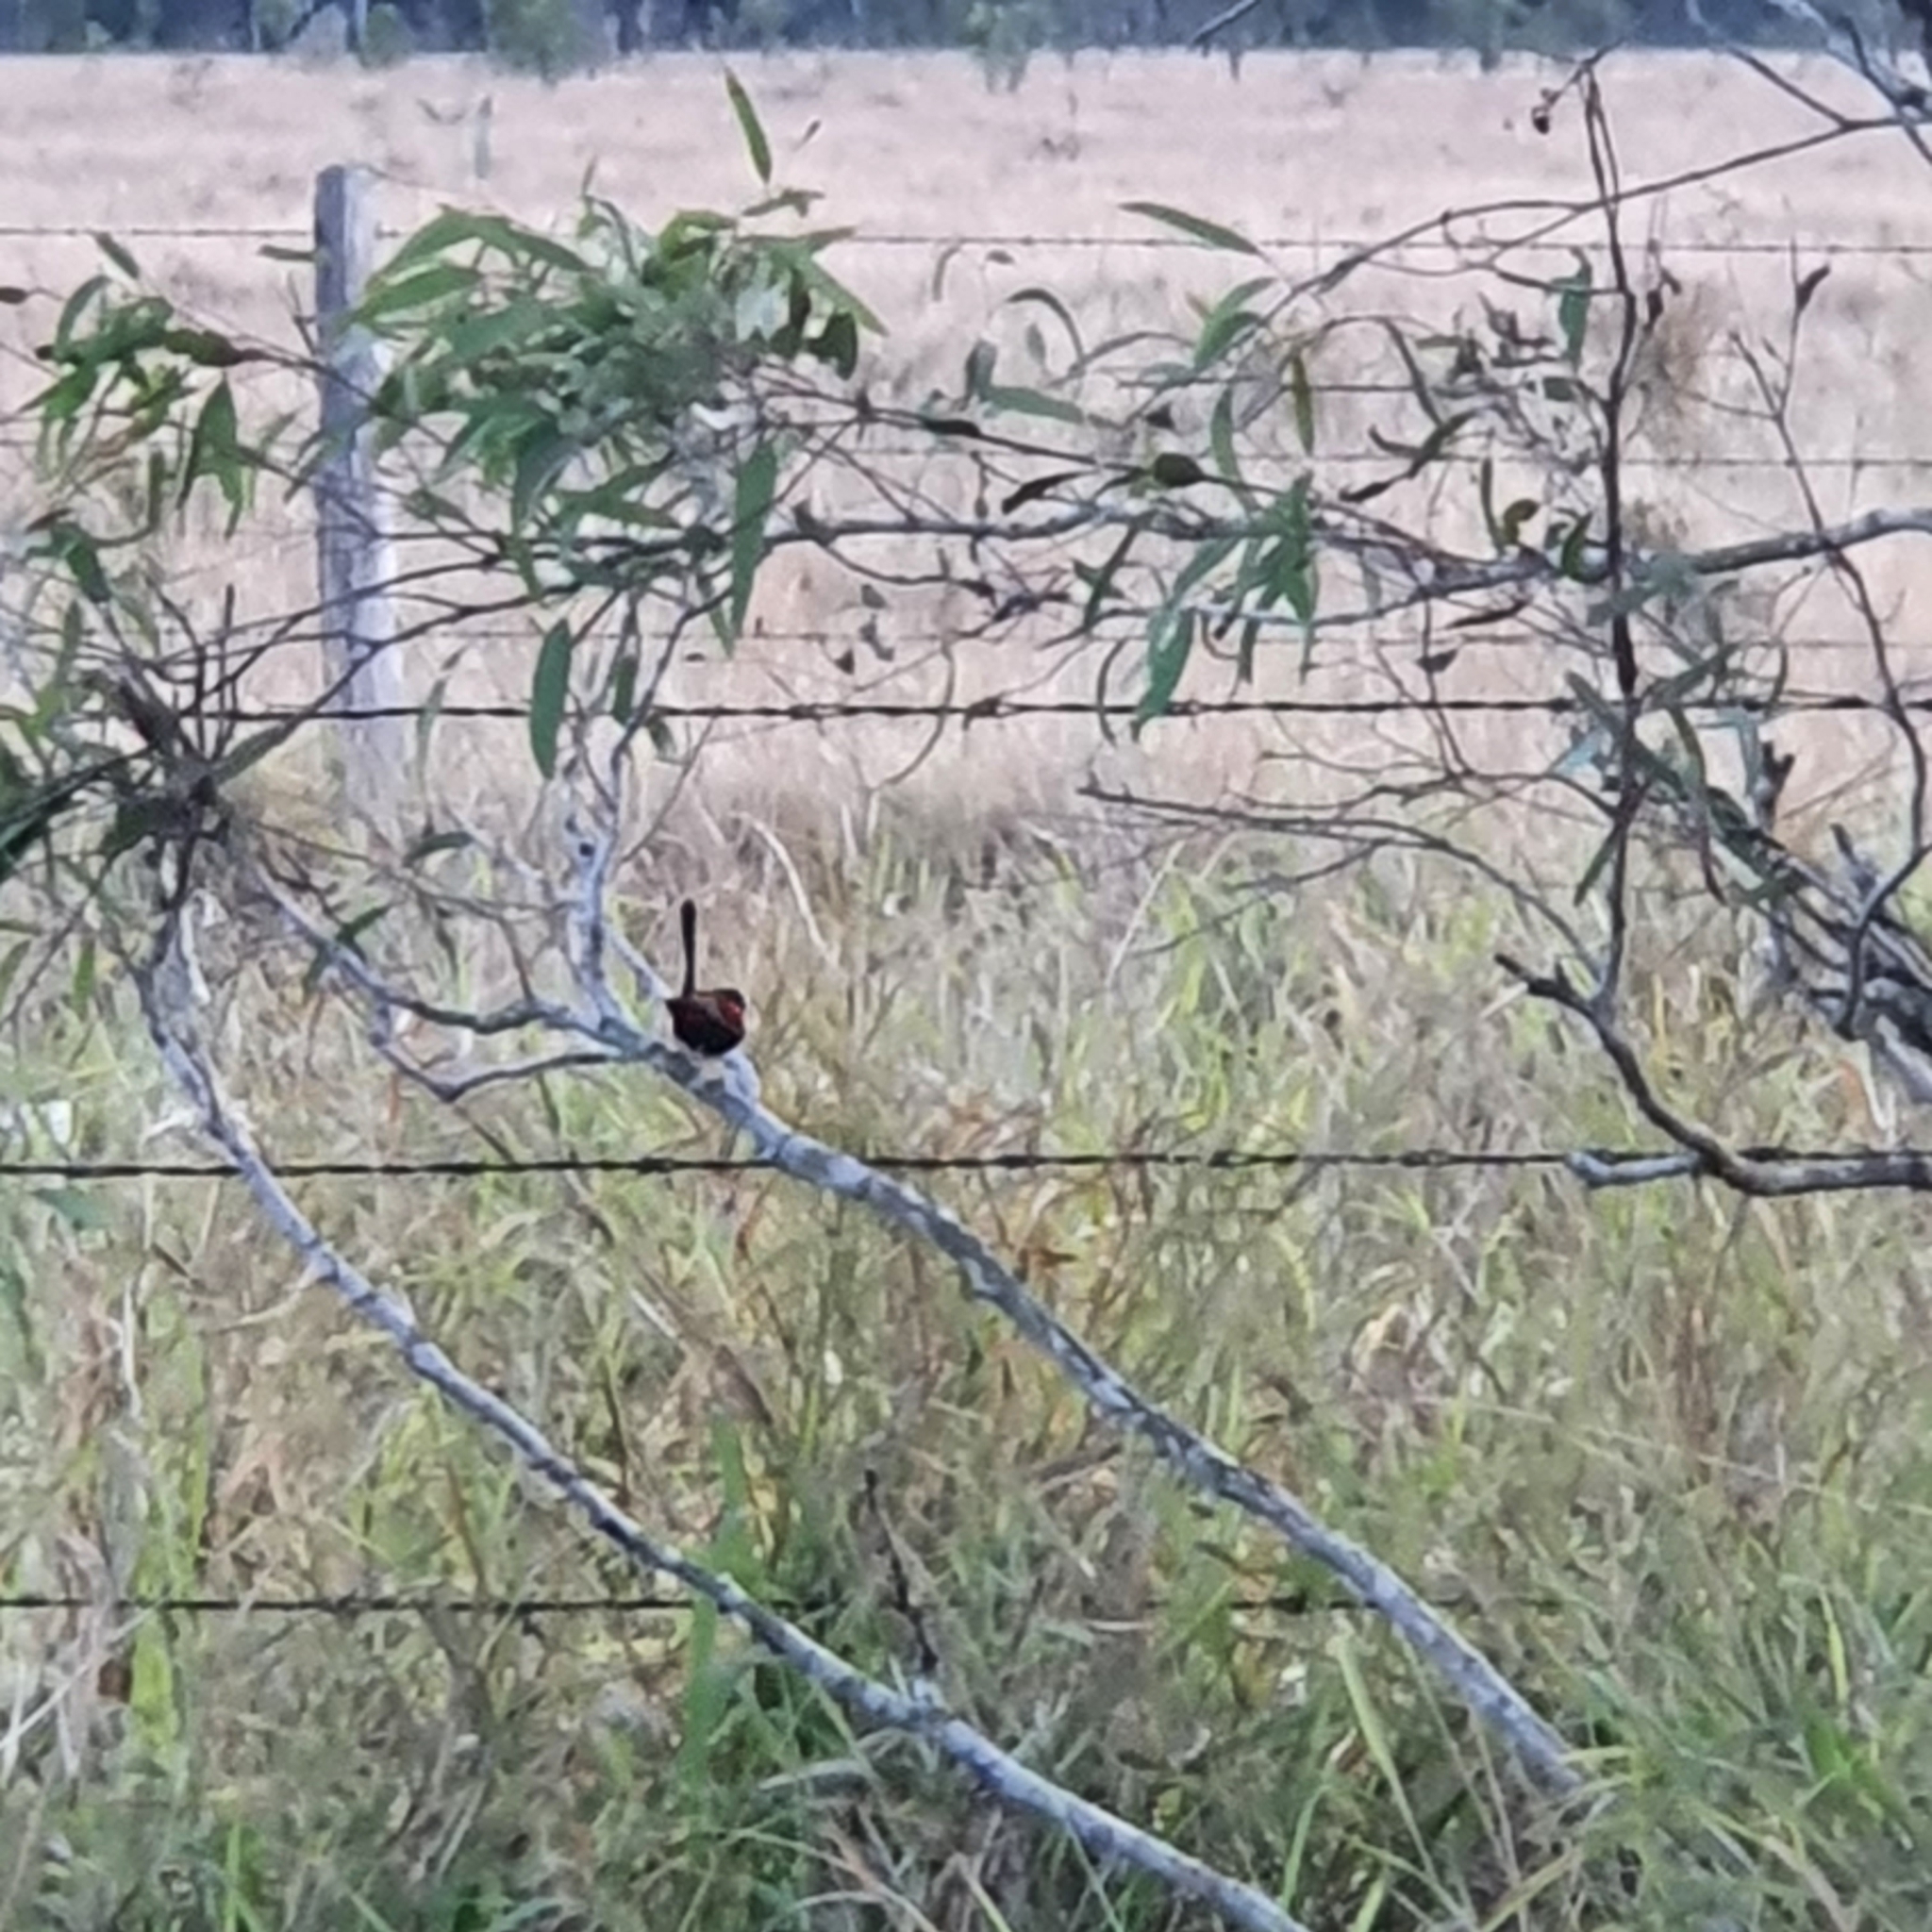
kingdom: Animalia
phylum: Chordata
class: Aves
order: Passeriformes
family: Maluridae
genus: Malurus
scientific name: Malurus melanocephalus
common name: Red-backed fairywren
